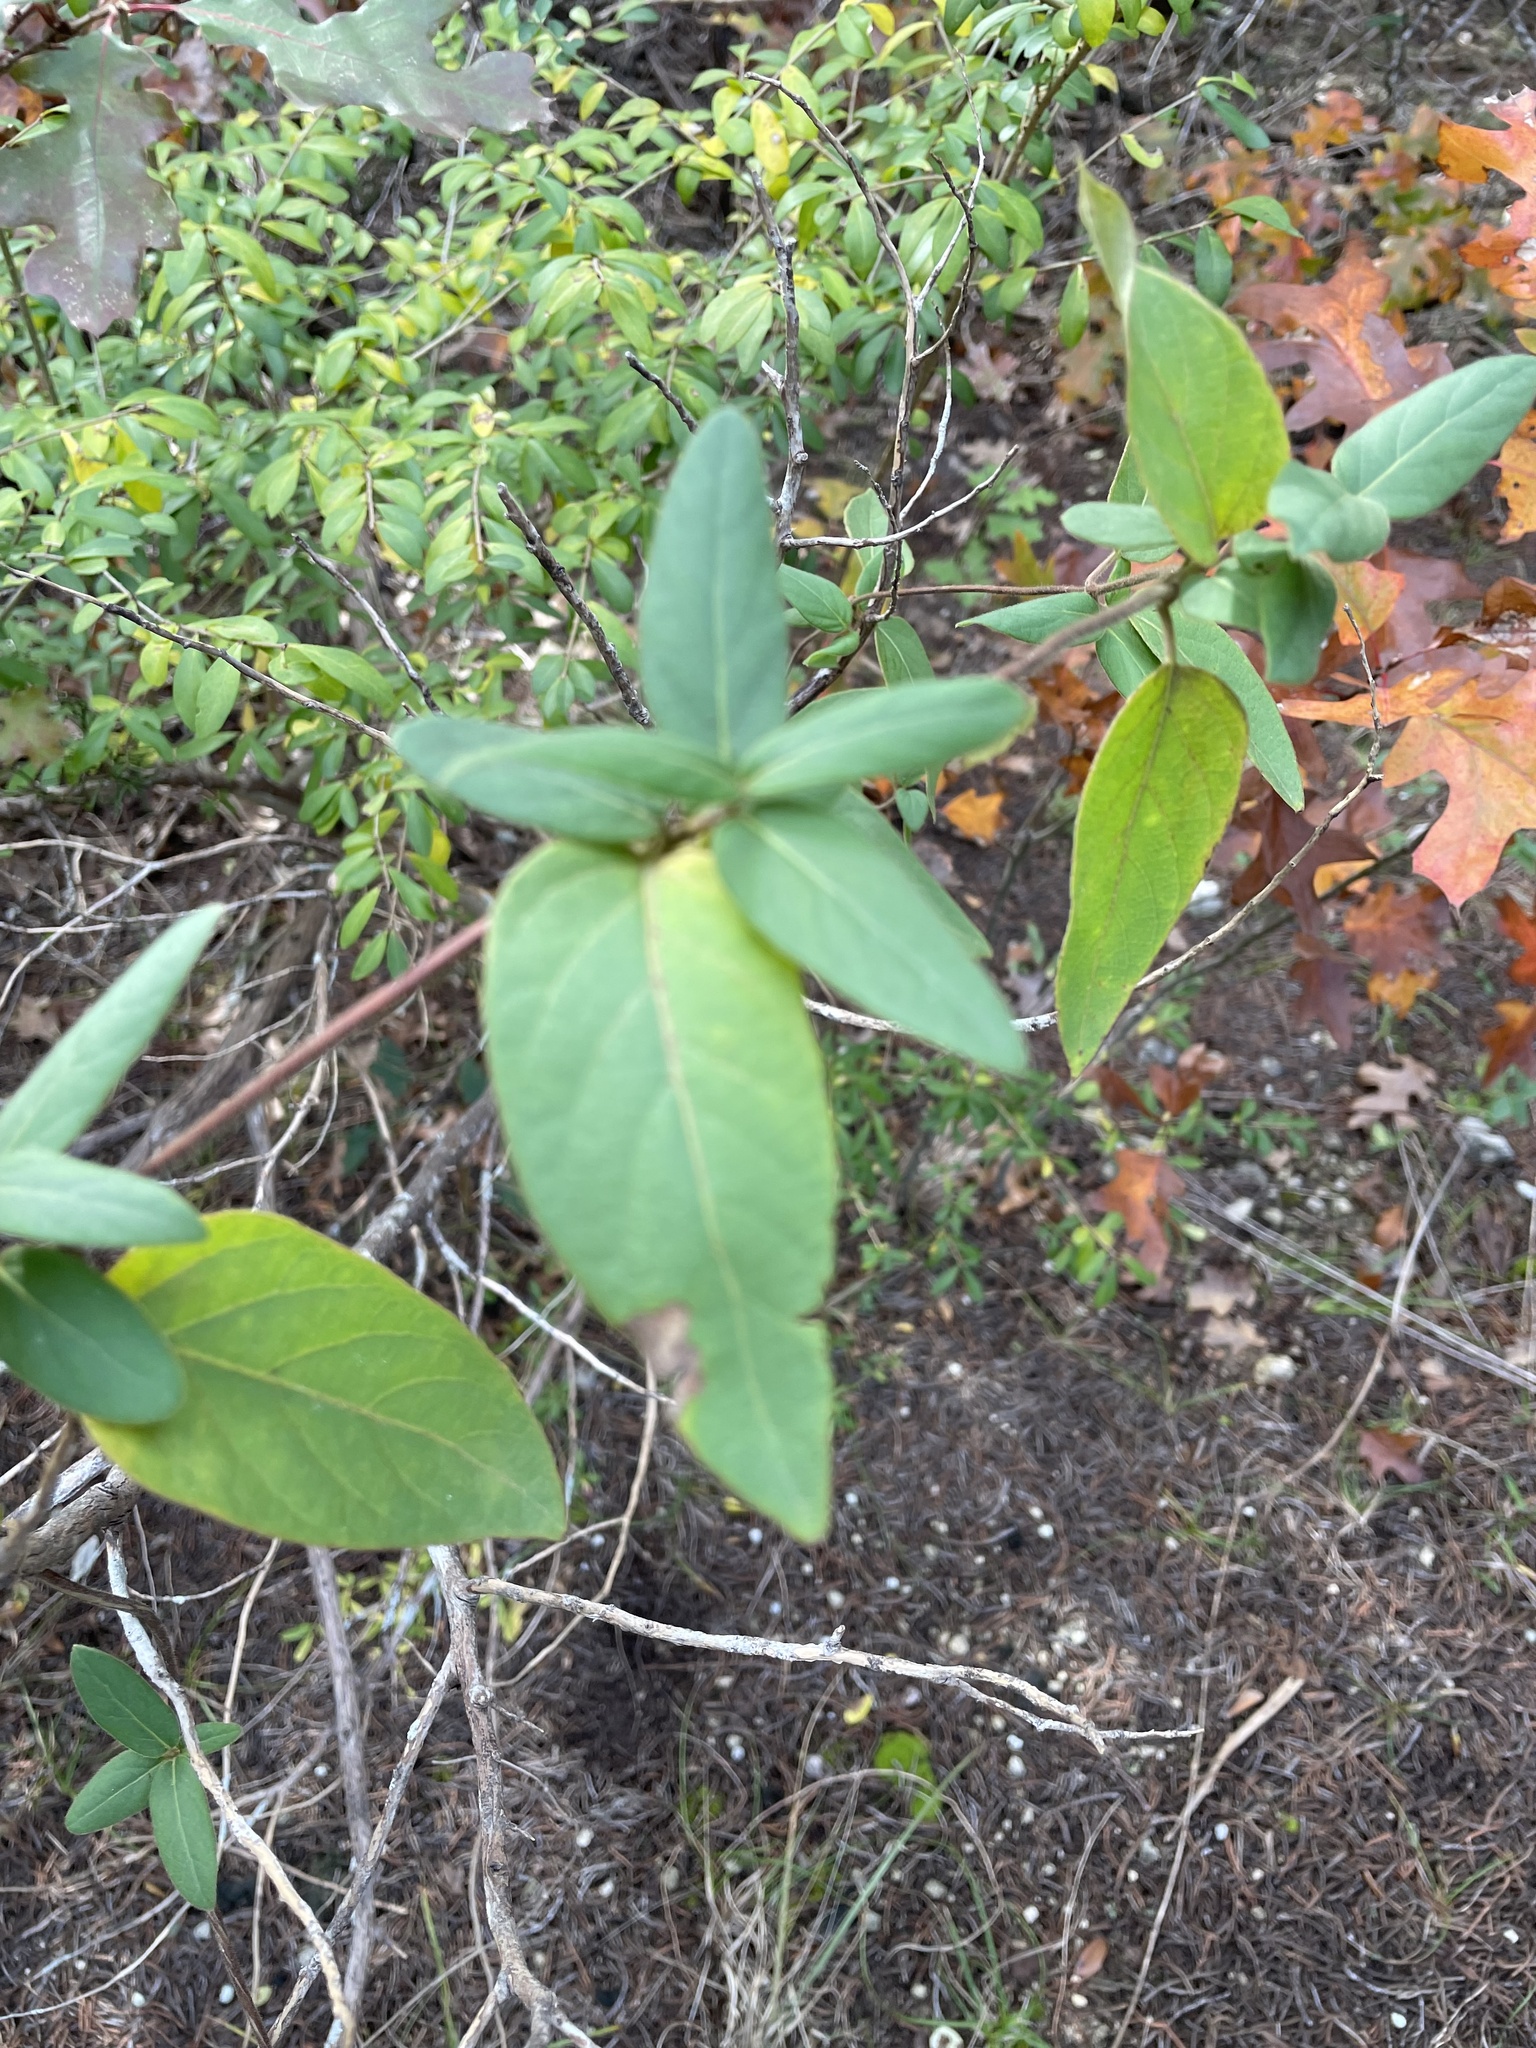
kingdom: Plantae
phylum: Tracheophyta
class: Magnoliopsida
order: Dipsacales
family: Caprifoliaceae
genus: Lonicera
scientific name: Lonicera japonica
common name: Japanese honeysuckle
